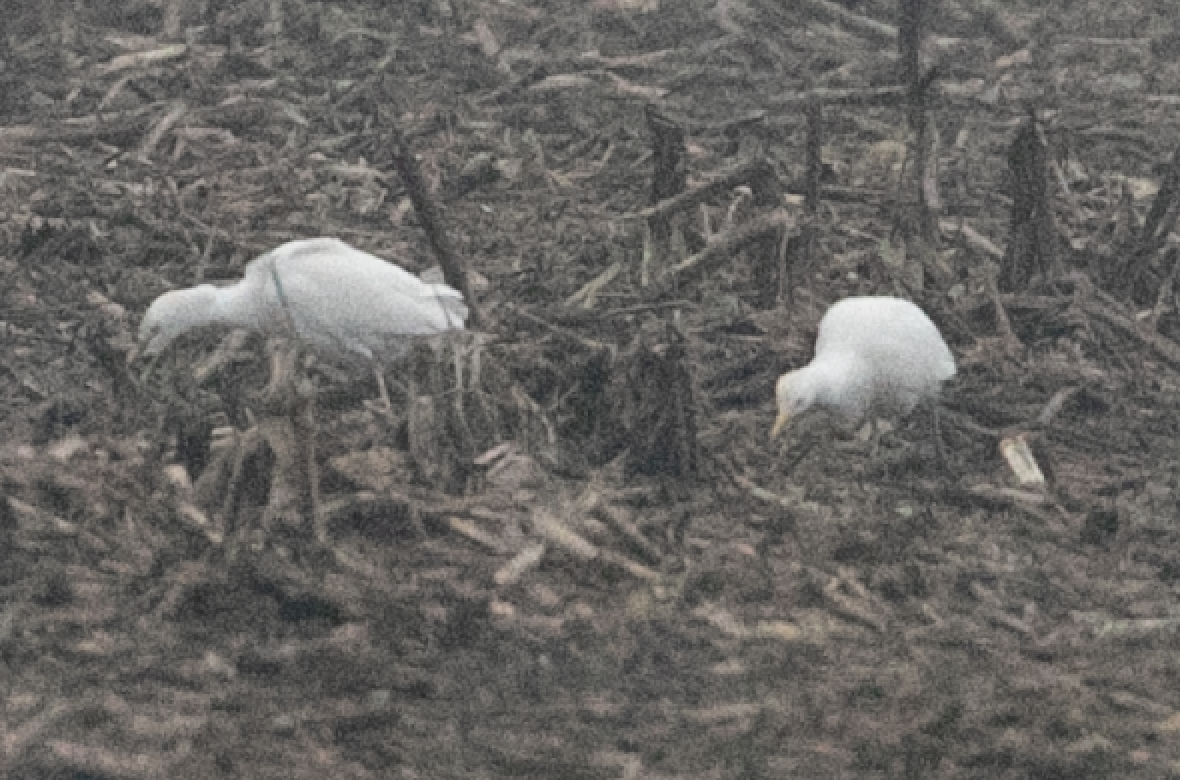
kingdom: Animalia
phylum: Chordata
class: Aves
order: Pelecaniformes
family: Ardeidae
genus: Bubulcus
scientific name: Bubulcus ibis
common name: Cattle egret
